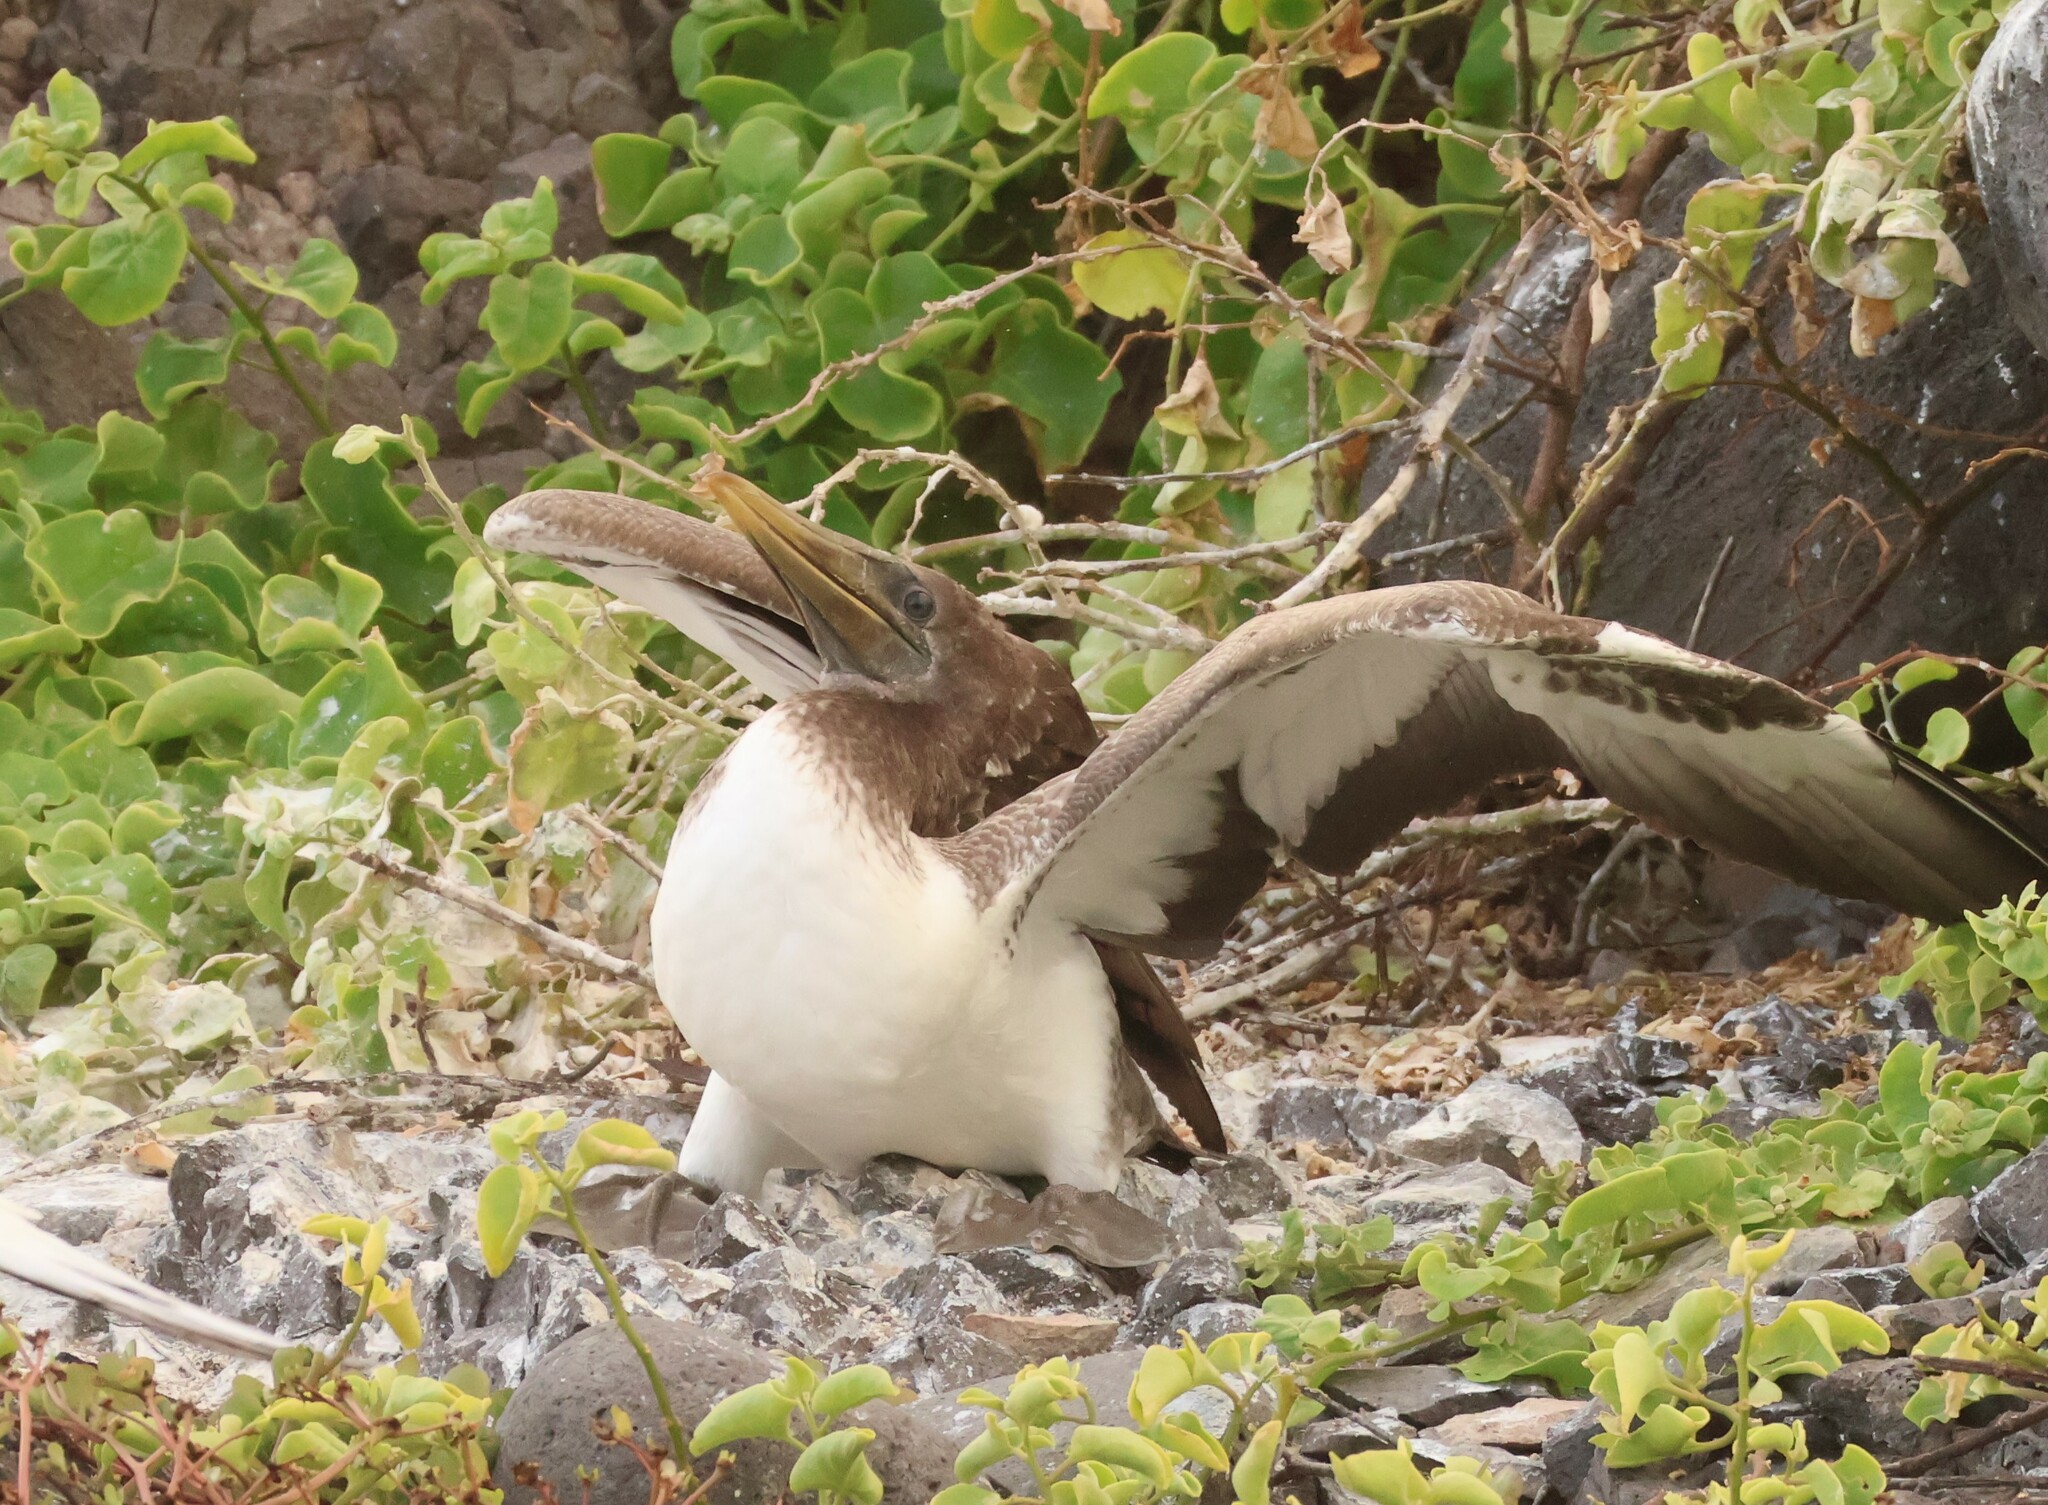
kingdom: Animalia
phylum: Chordata
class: Aves
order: Suliformes
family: Sulidae
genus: Sula
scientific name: Sula granti
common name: Nazca booby
